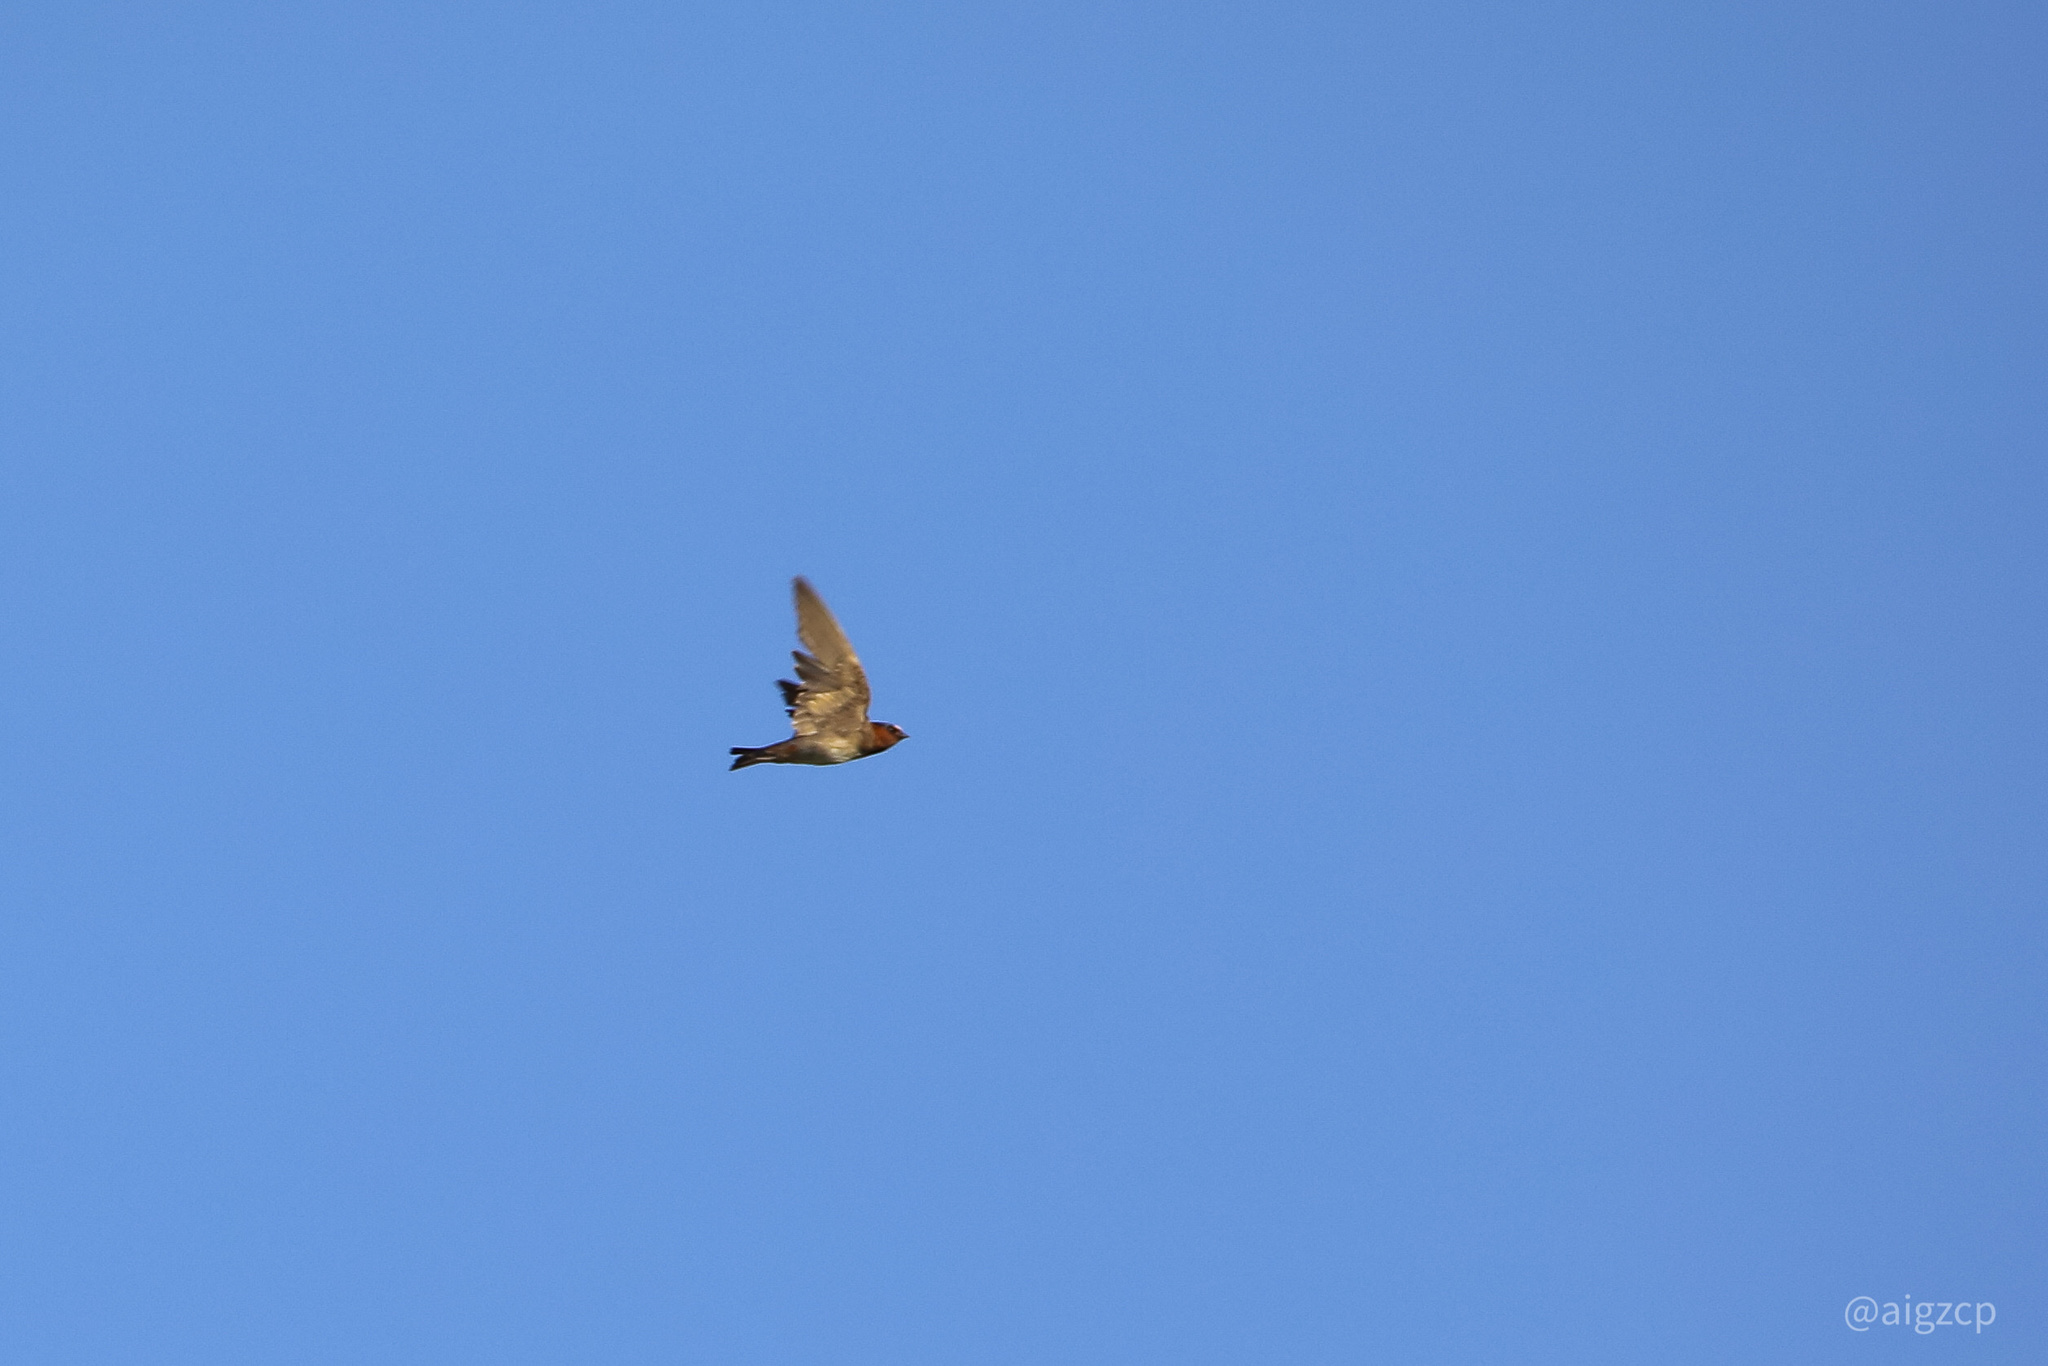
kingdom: Animalia
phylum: Chordata
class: Aves
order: Passeriformes
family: Hirundinidae
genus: Petrochelidon
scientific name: Petrochelidon pyrrhonota
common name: American cliff swallow
